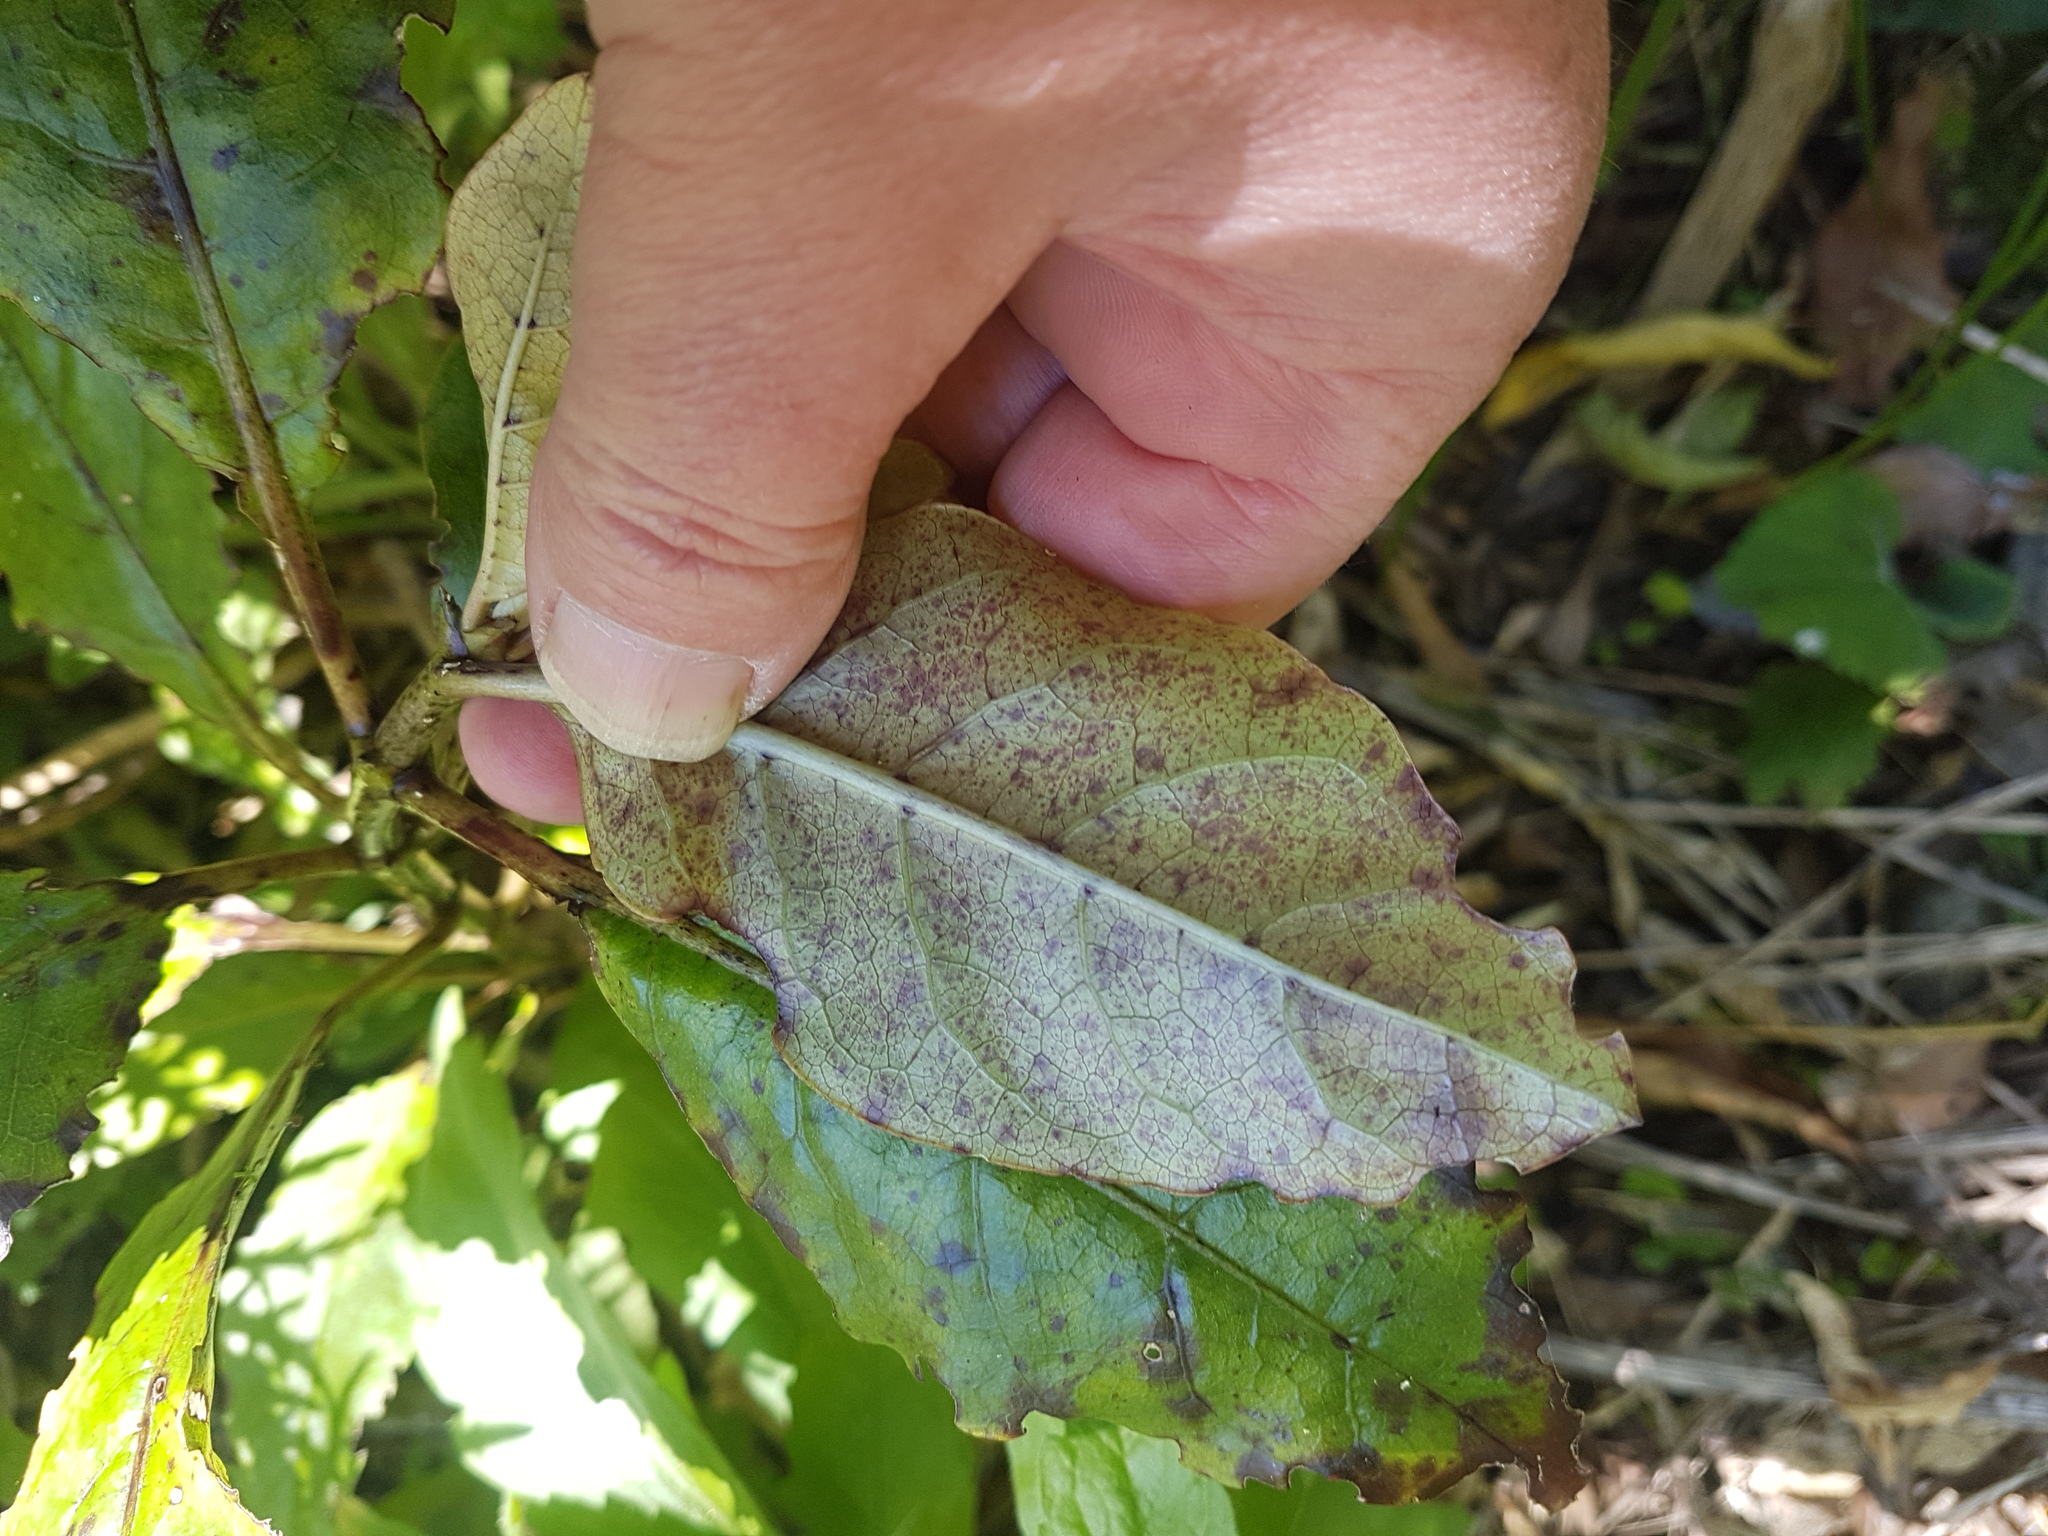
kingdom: Plantae
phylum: Tracheophyta
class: Magnoliopsida
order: Gentianales
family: Rubiaceae
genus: Coprosma
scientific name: Coprosma autumnalis
